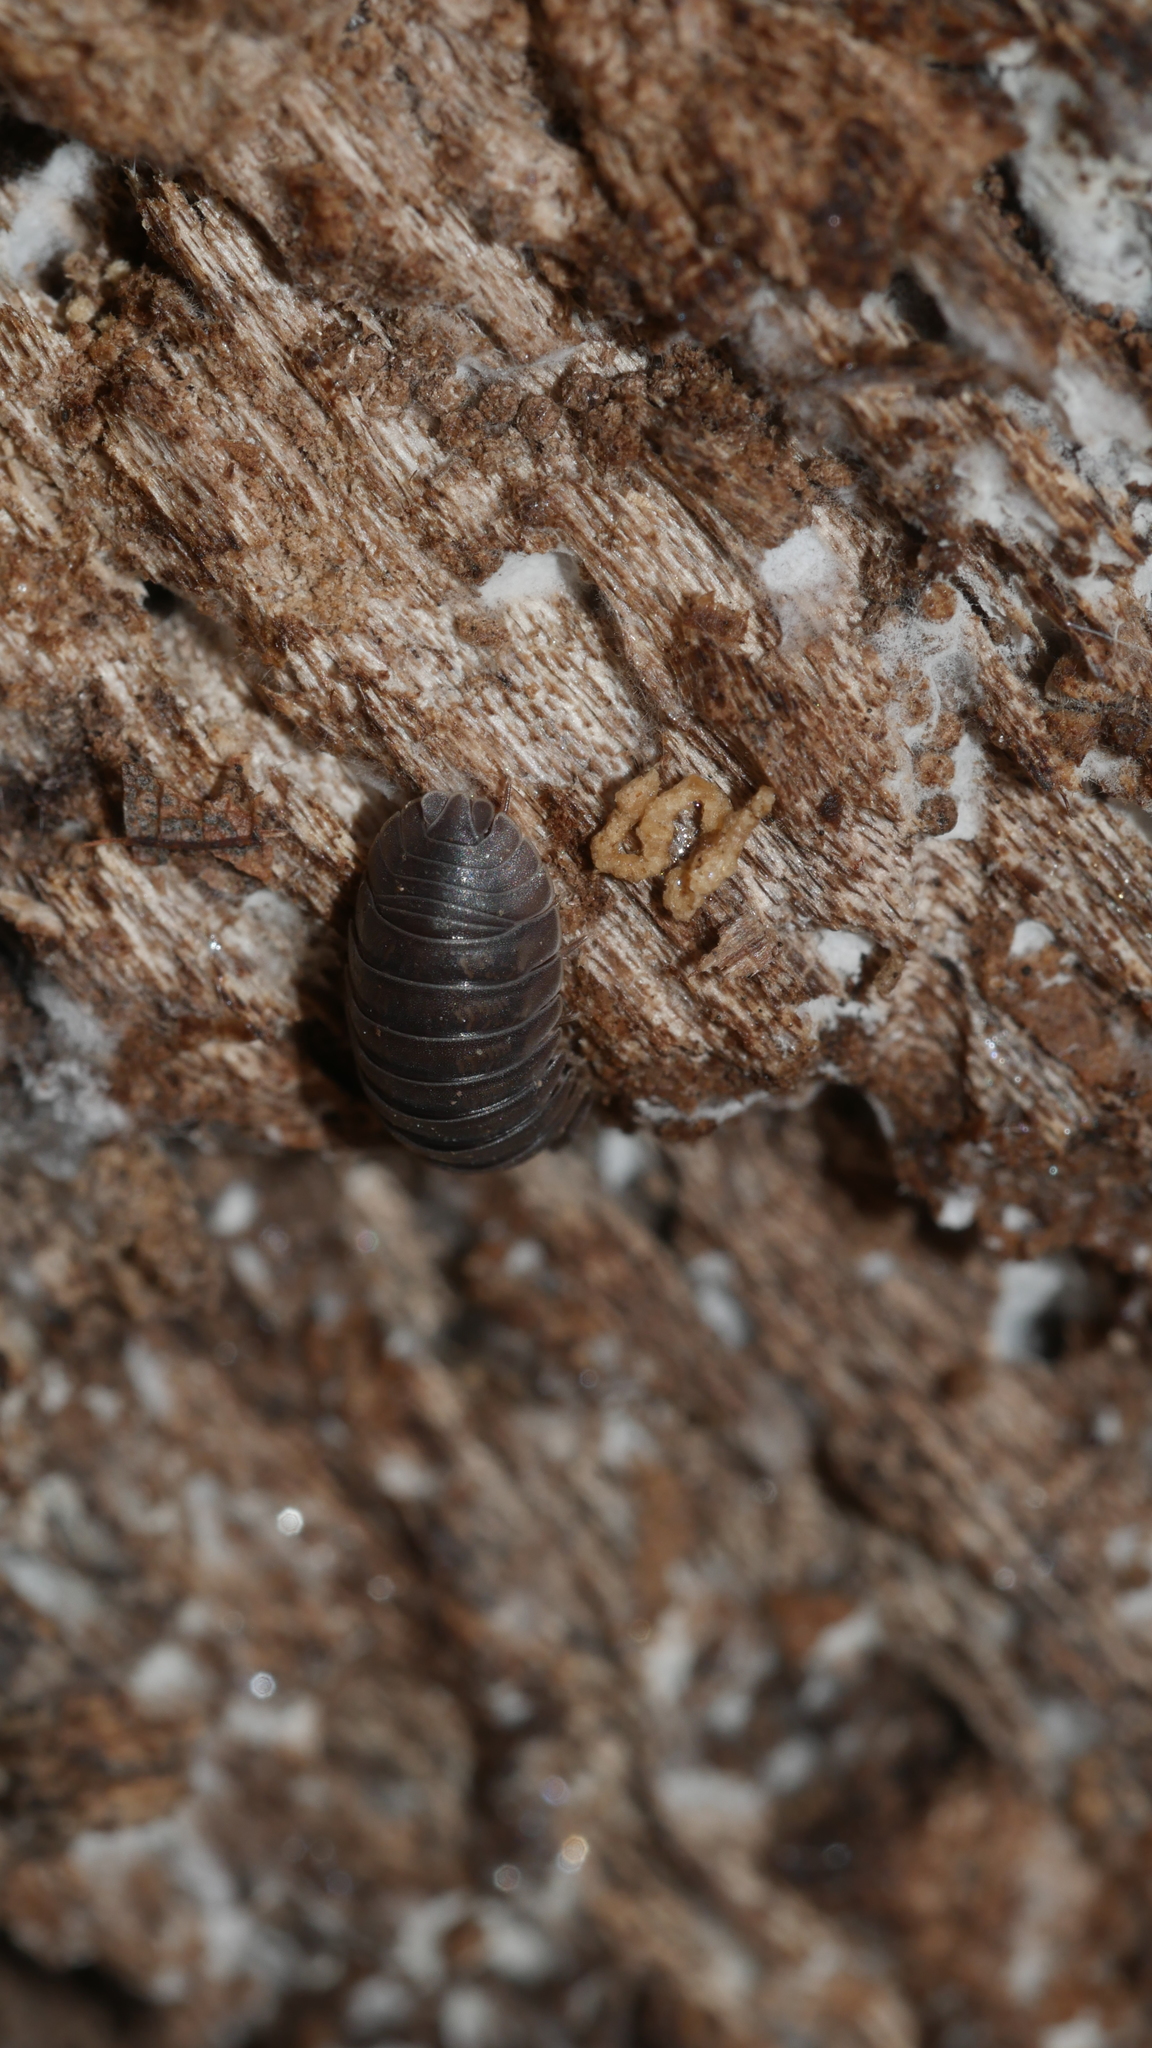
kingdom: Animalia
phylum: Arthropoda
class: Malacostraca
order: Isopoda
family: Armadillidiidae
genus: Armadillidium
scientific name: Armadillidium nasatum
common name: Isopod
